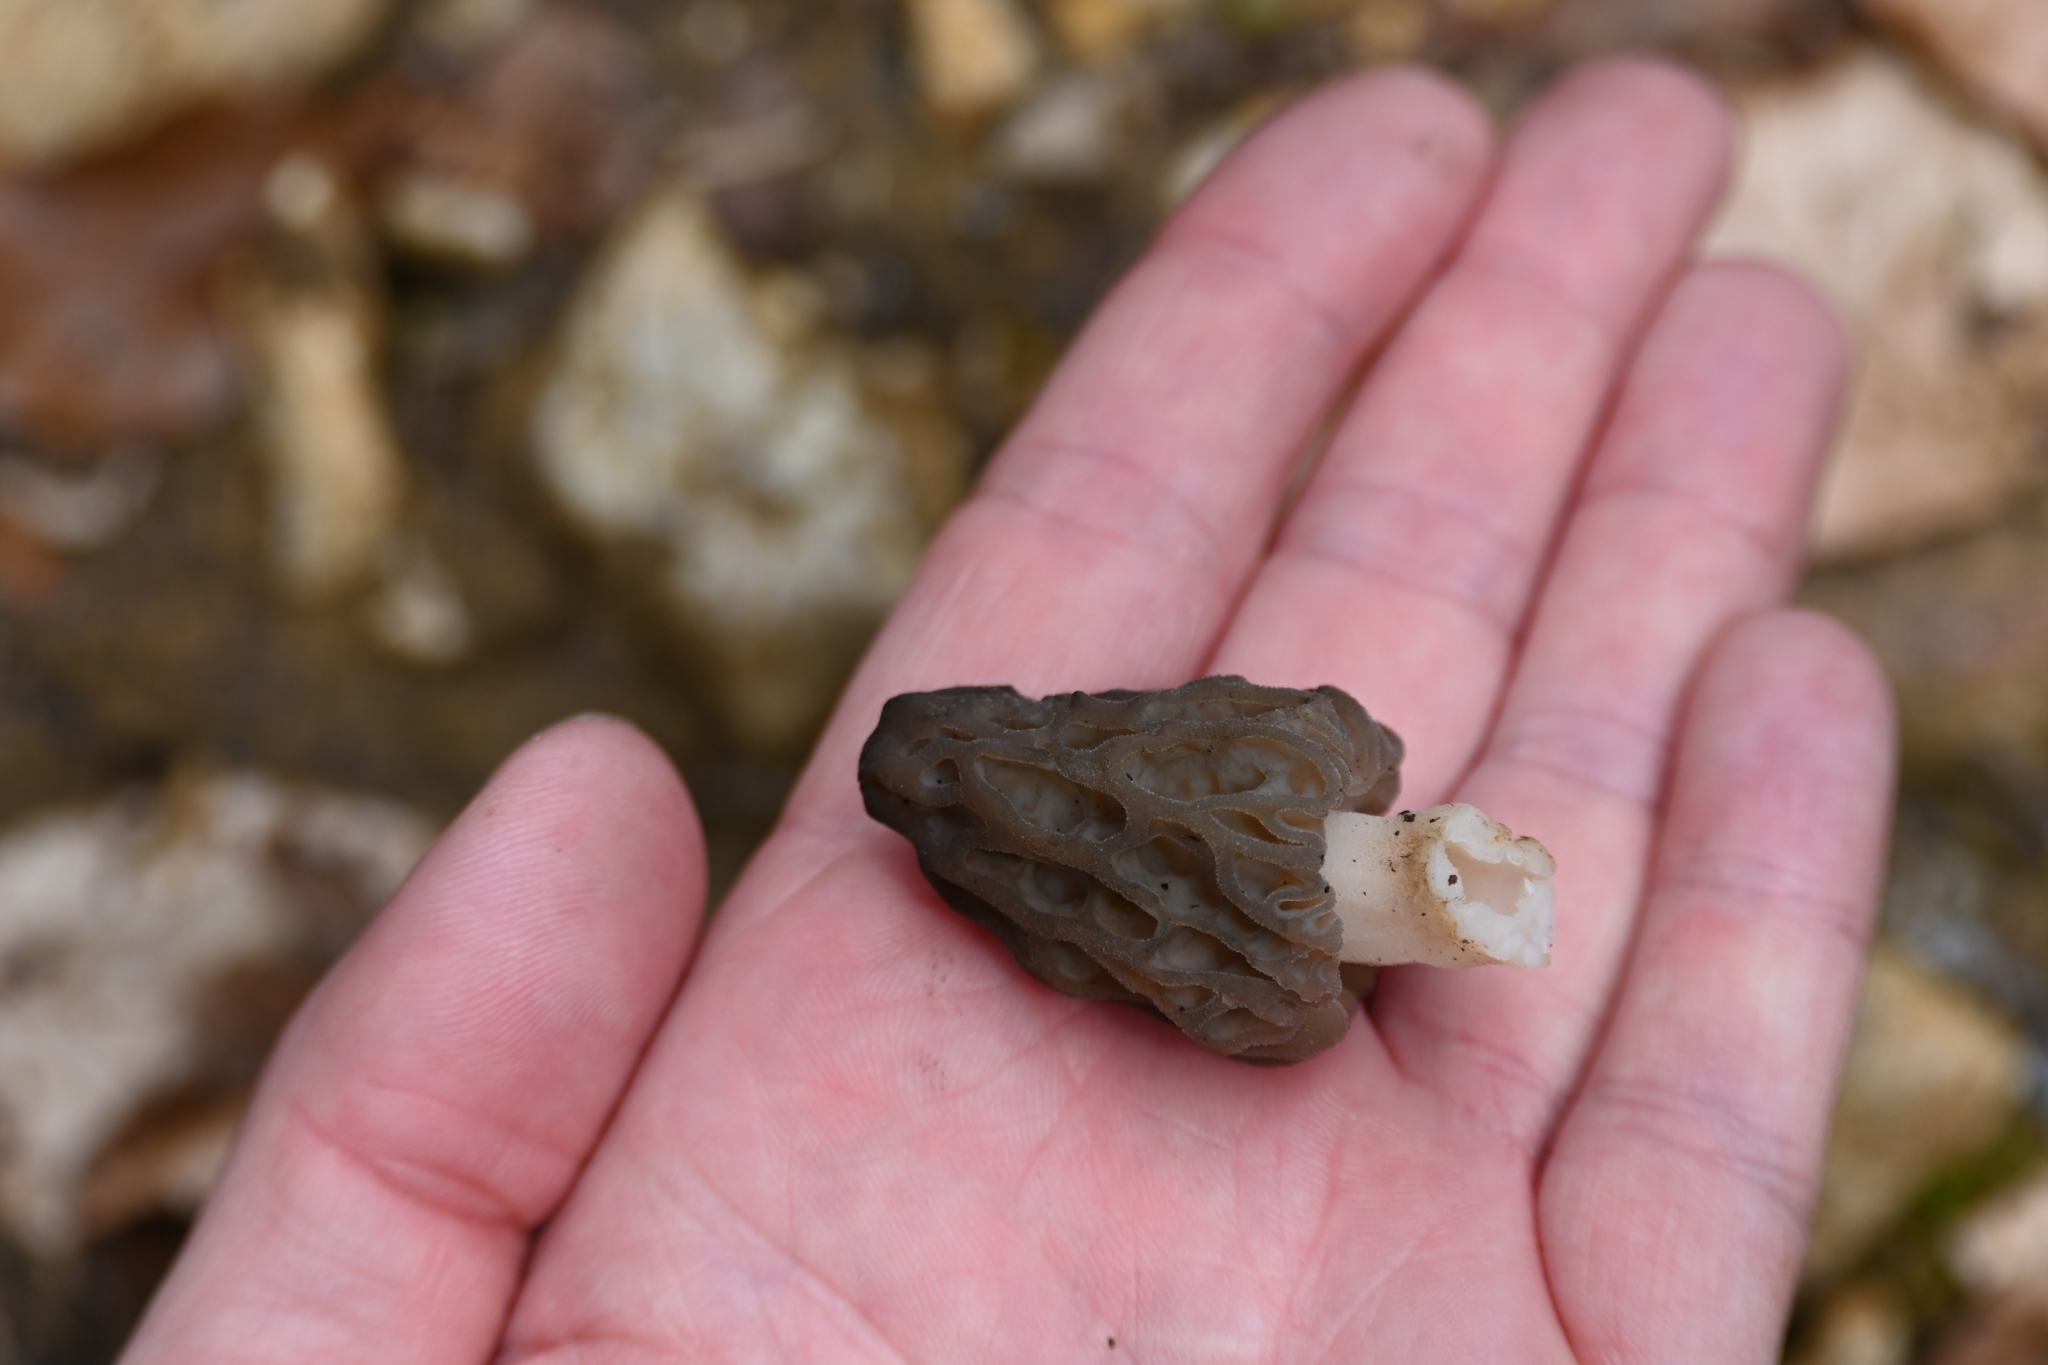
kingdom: Fungi
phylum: Ascomycota
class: Pezizomycetes
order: Pezizales
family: Morchellaceae
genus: Morchella
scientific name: Morchella
